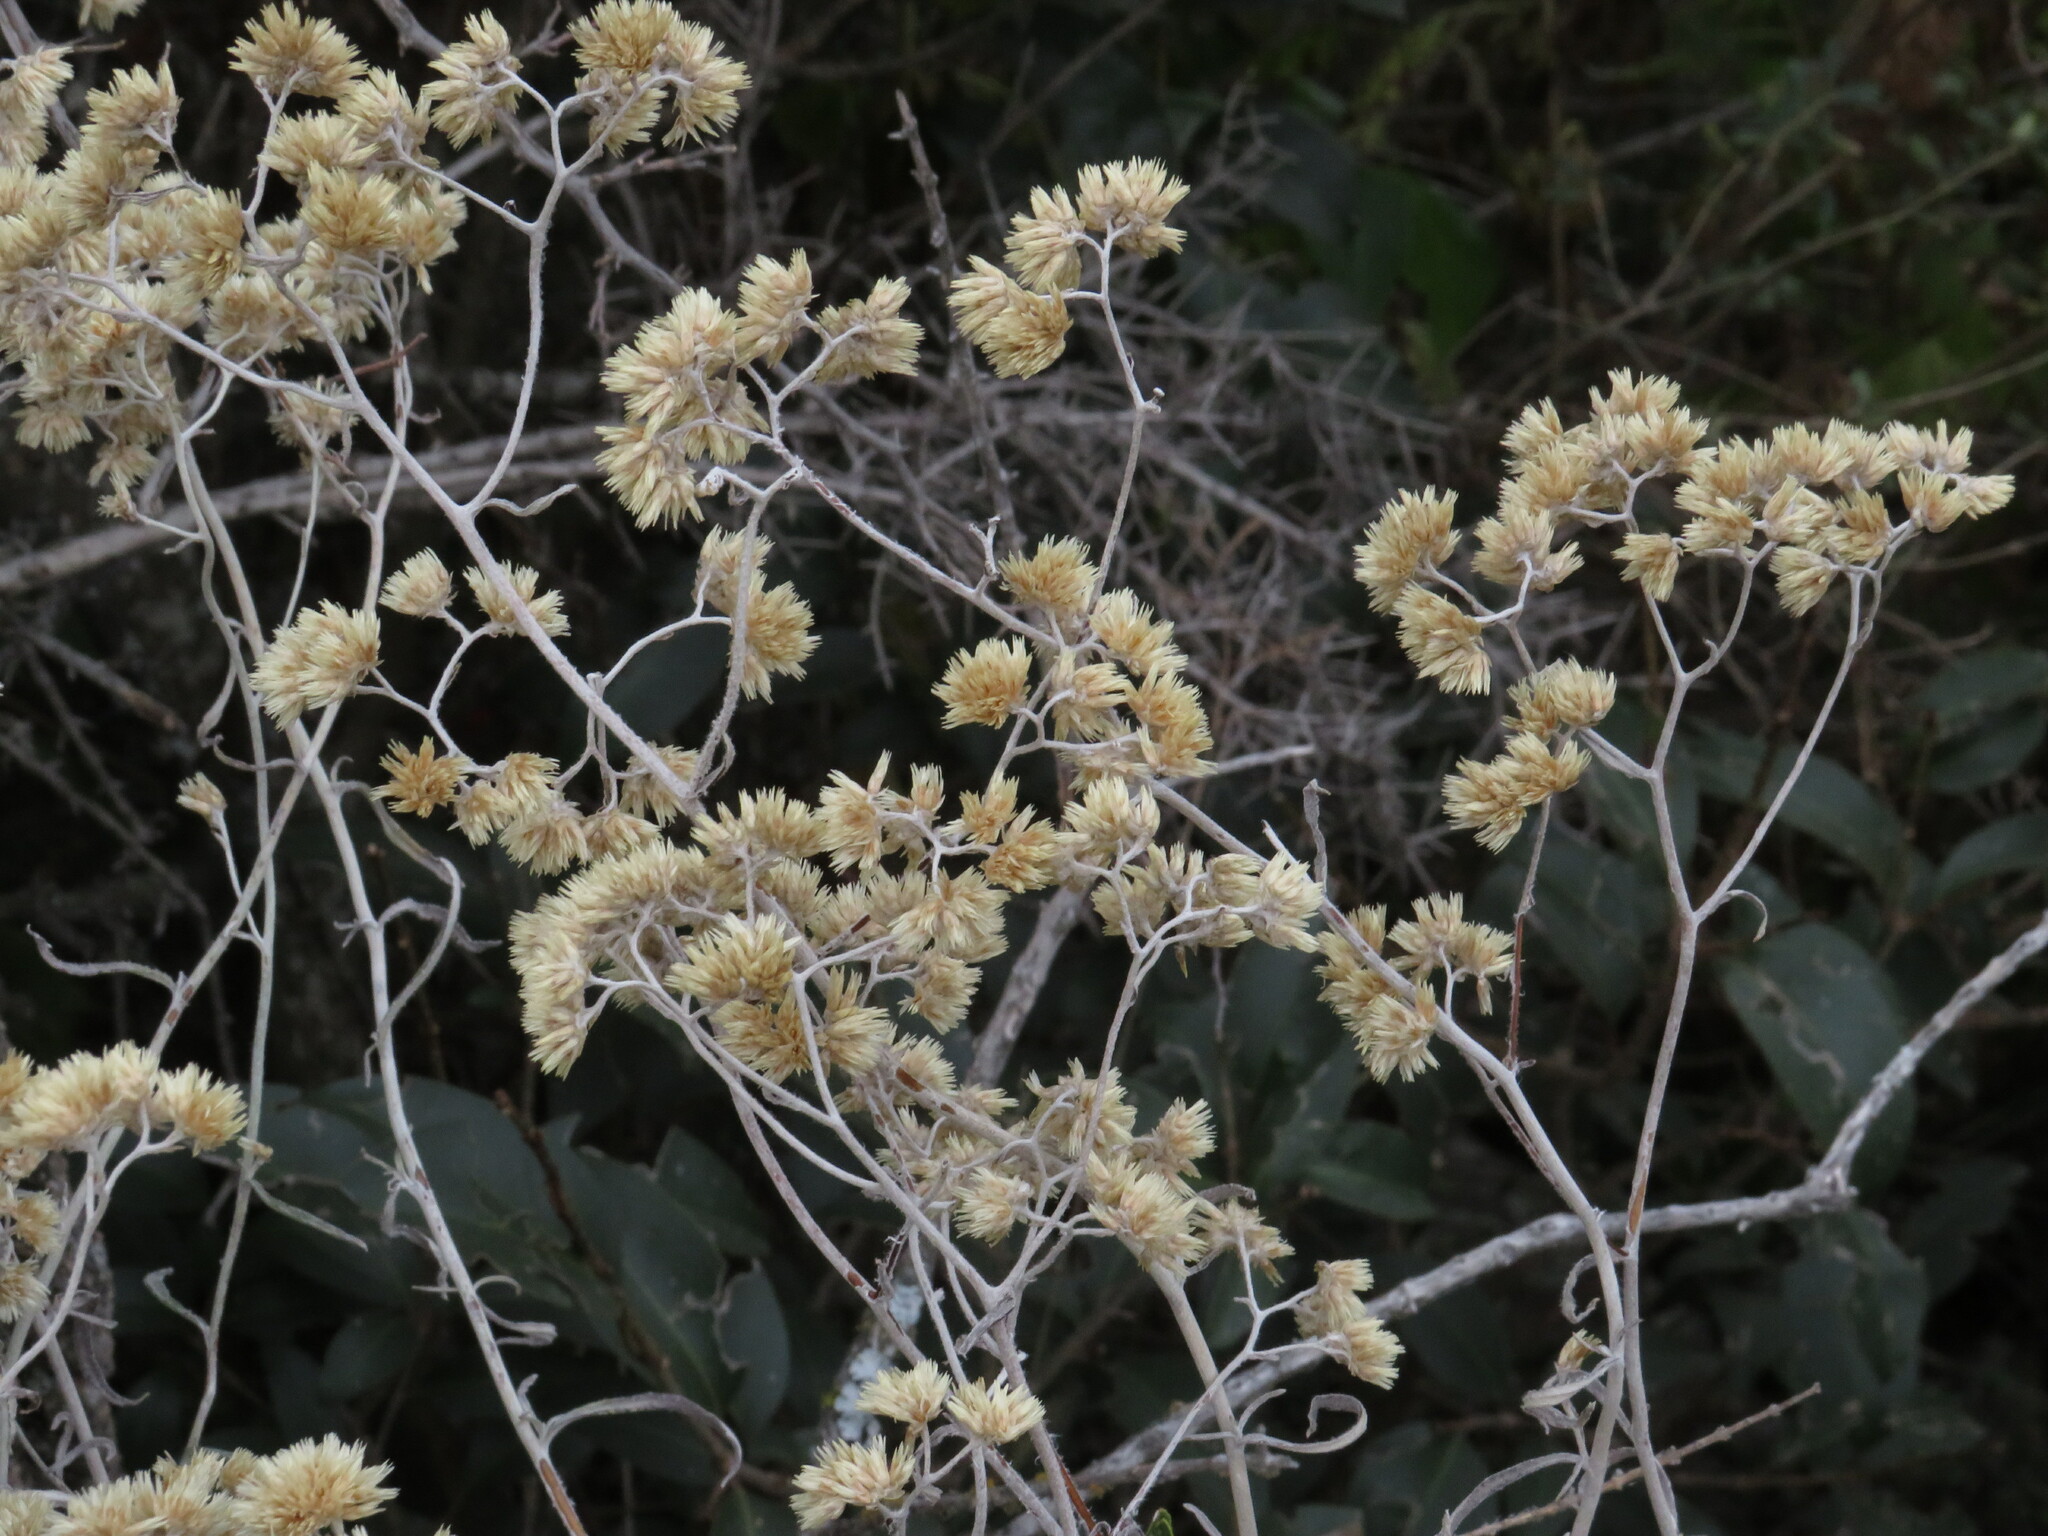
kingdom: Plantae
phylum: Tracheophyta
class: Magnoliopsida
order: Asterales
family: Asteraceae
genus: Achyrocline
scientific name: Achyrocline satureioides
